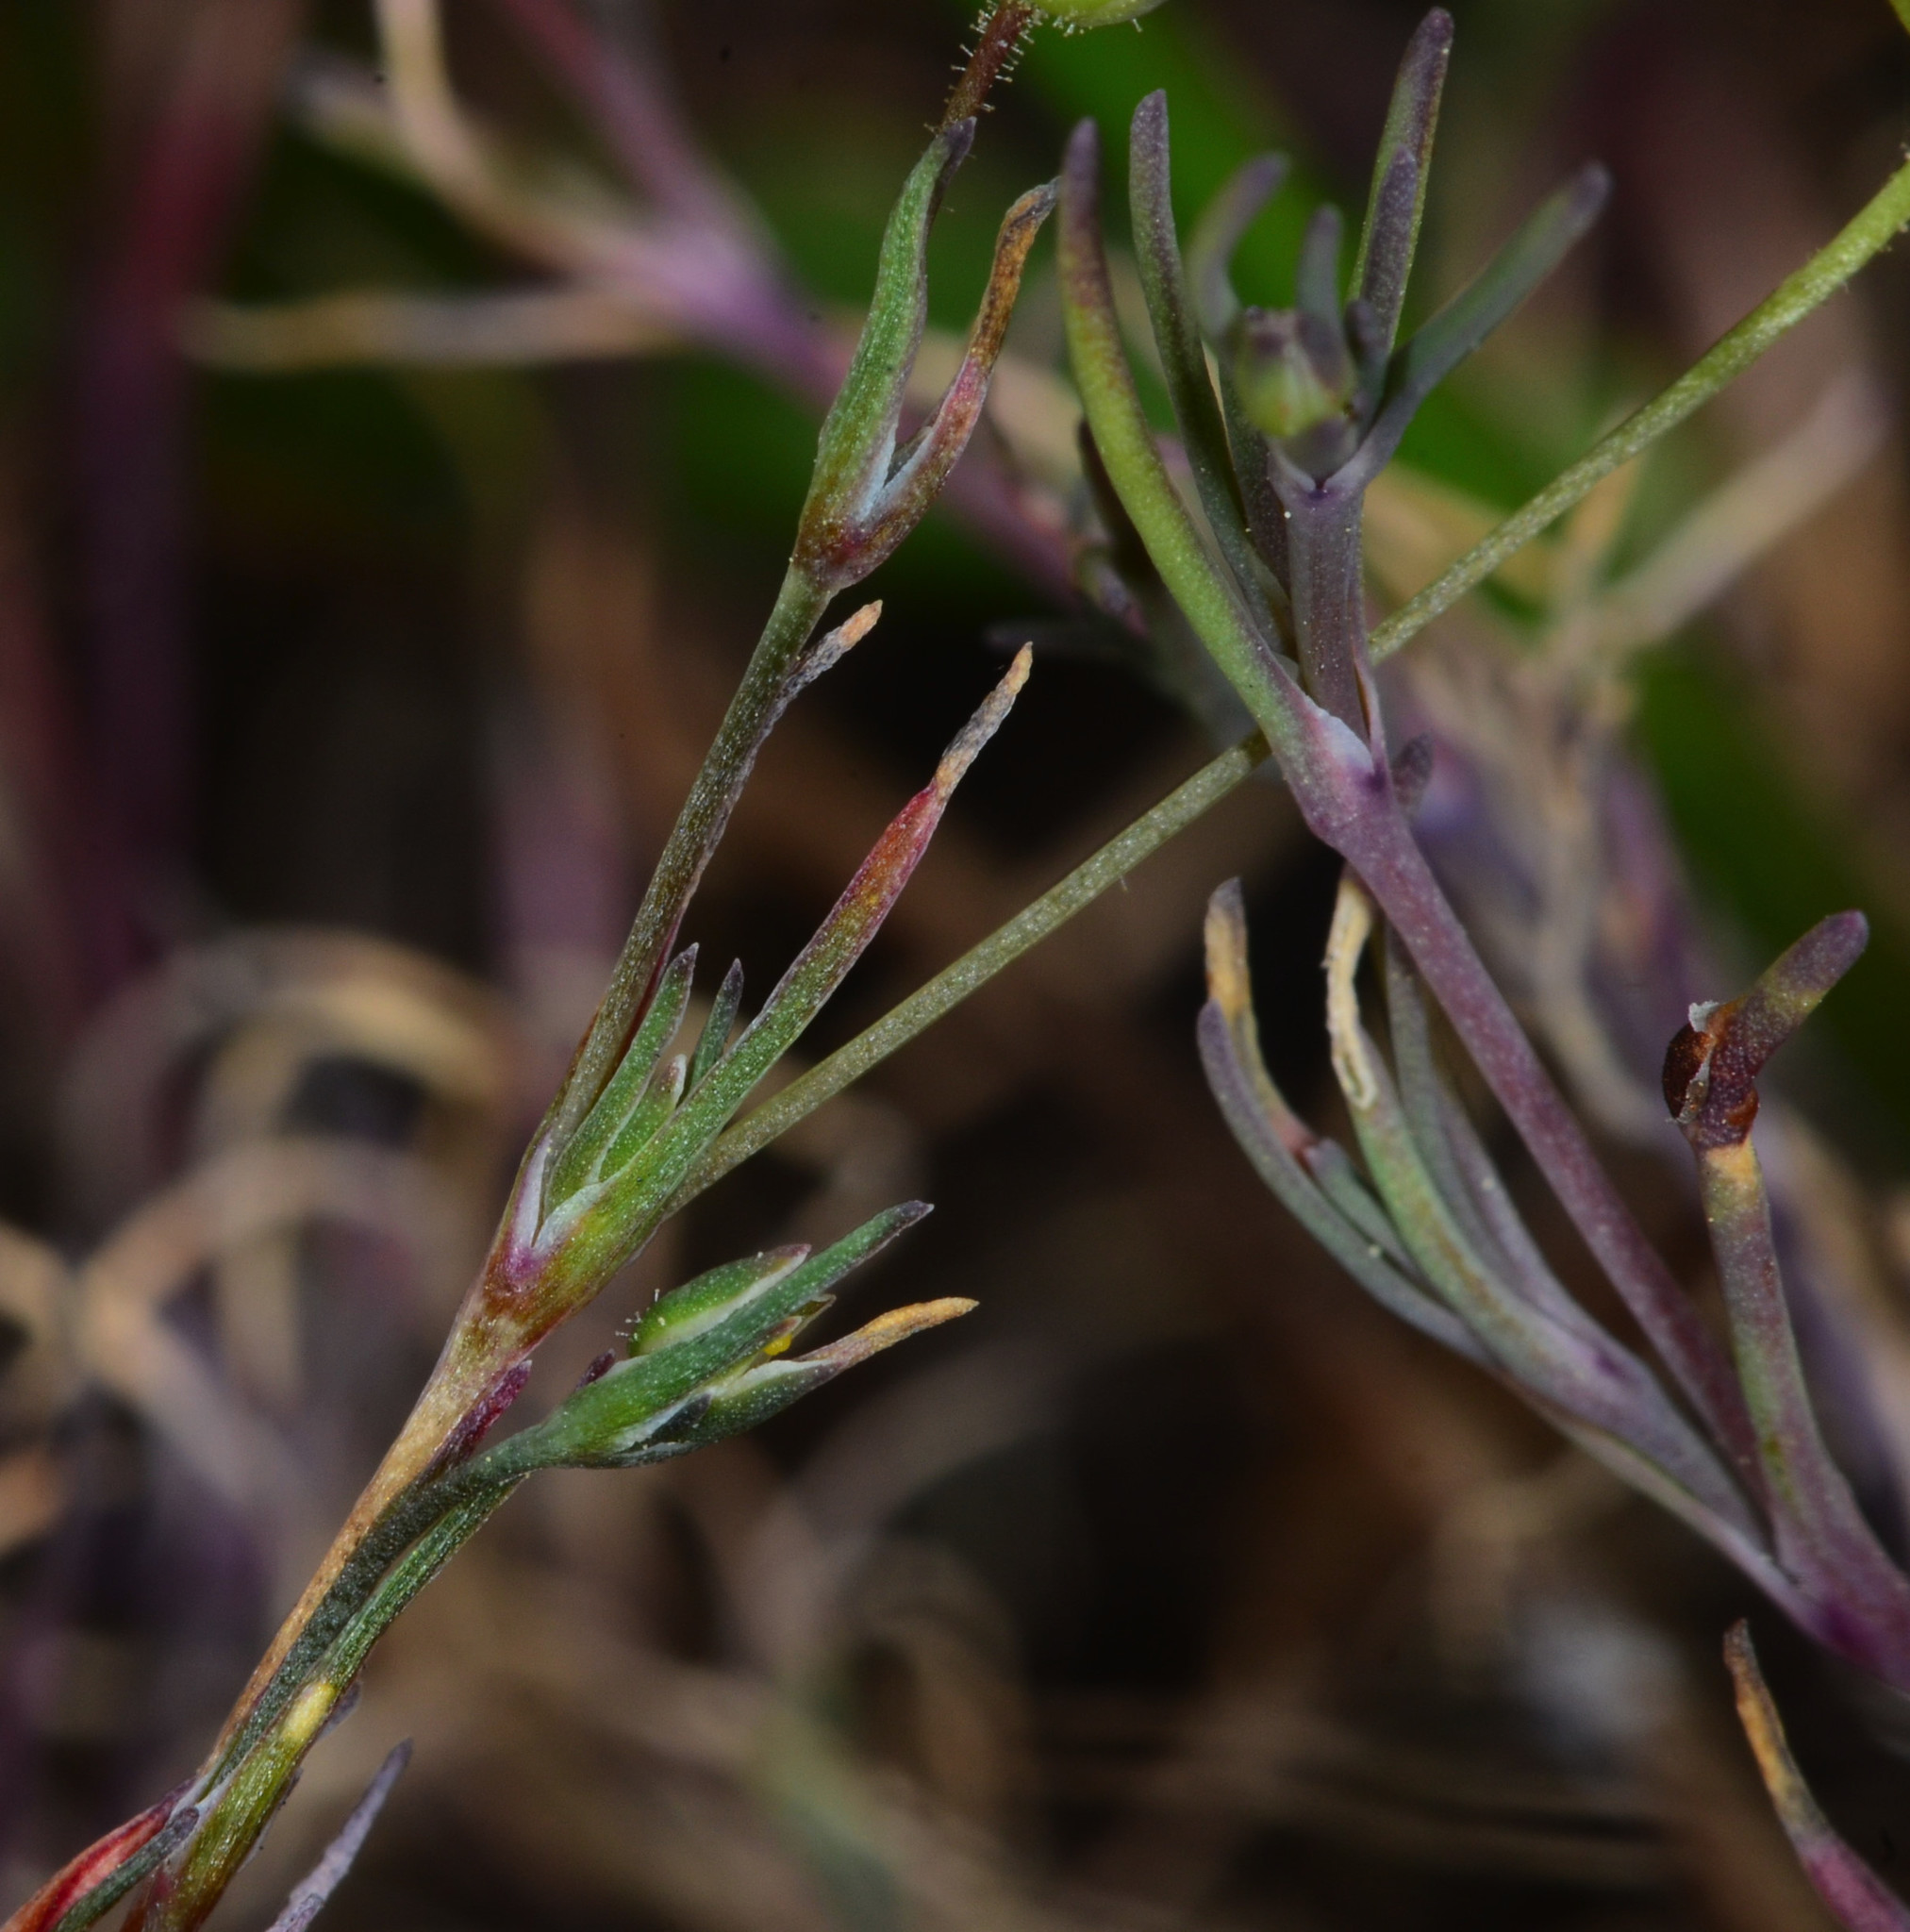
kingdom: Plantae
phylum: Tracheophyta
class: Magnoliopsida
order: Caryophyllales
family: Caryophyllaceae
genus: Sabulina
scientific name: Sabulina douglasii
